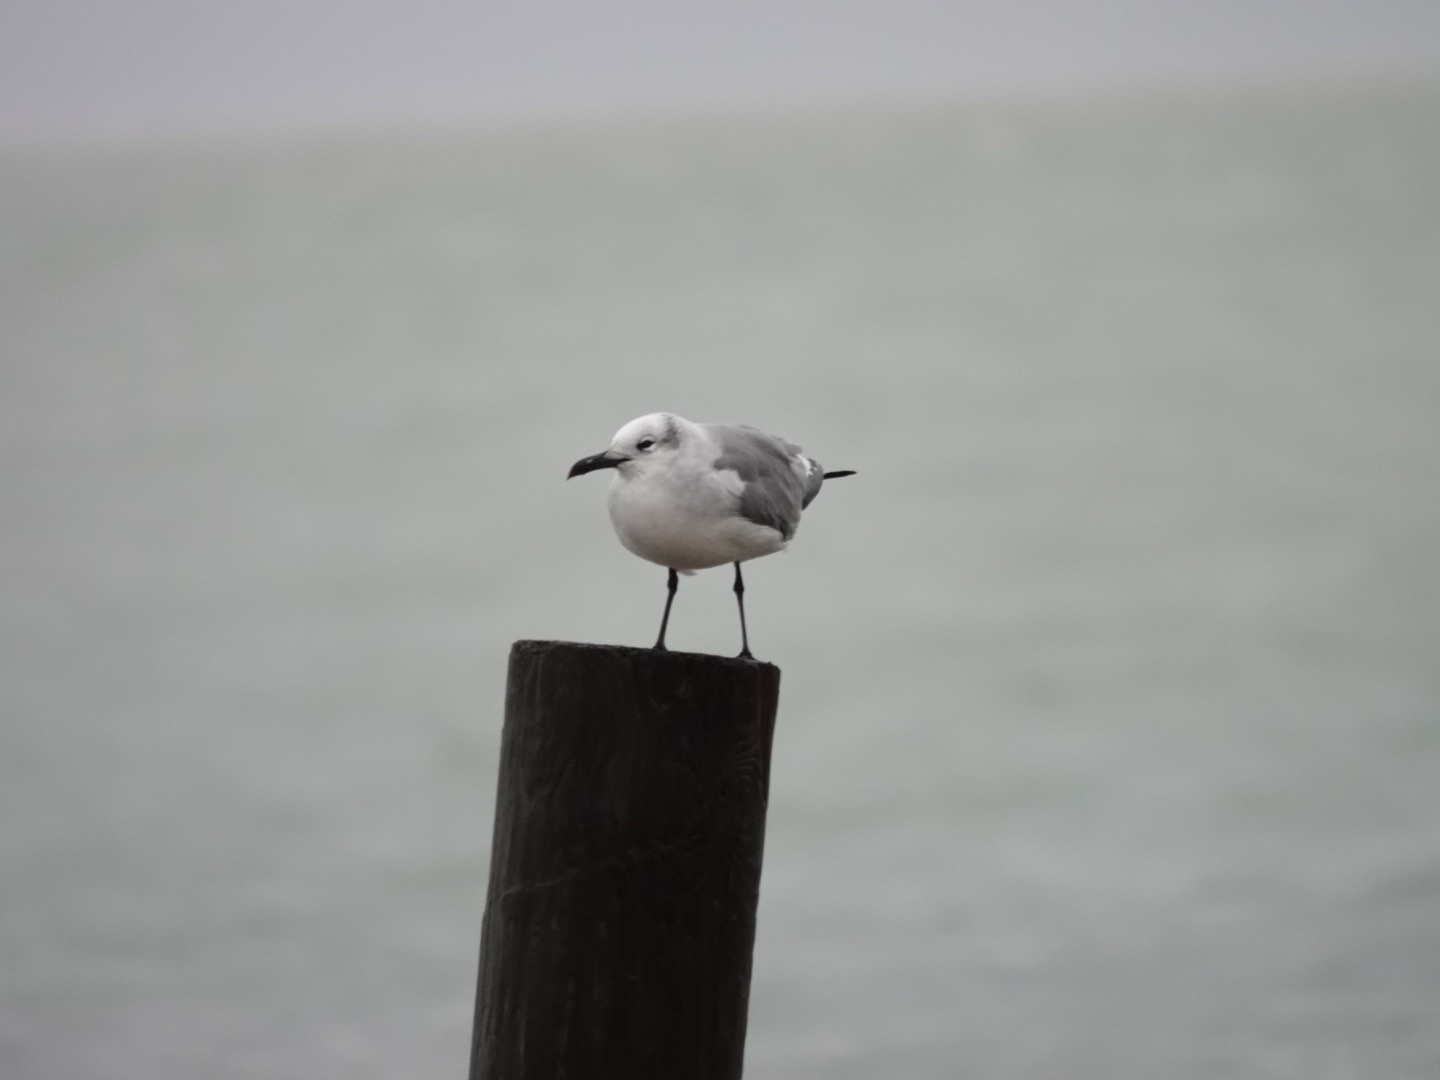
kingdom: Animalia
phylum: Chordata
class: Aves
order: Charadriiformes
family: Laridae
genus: Leucophaeus
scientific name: Leucophaeus atricilla
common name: Laughing gull
